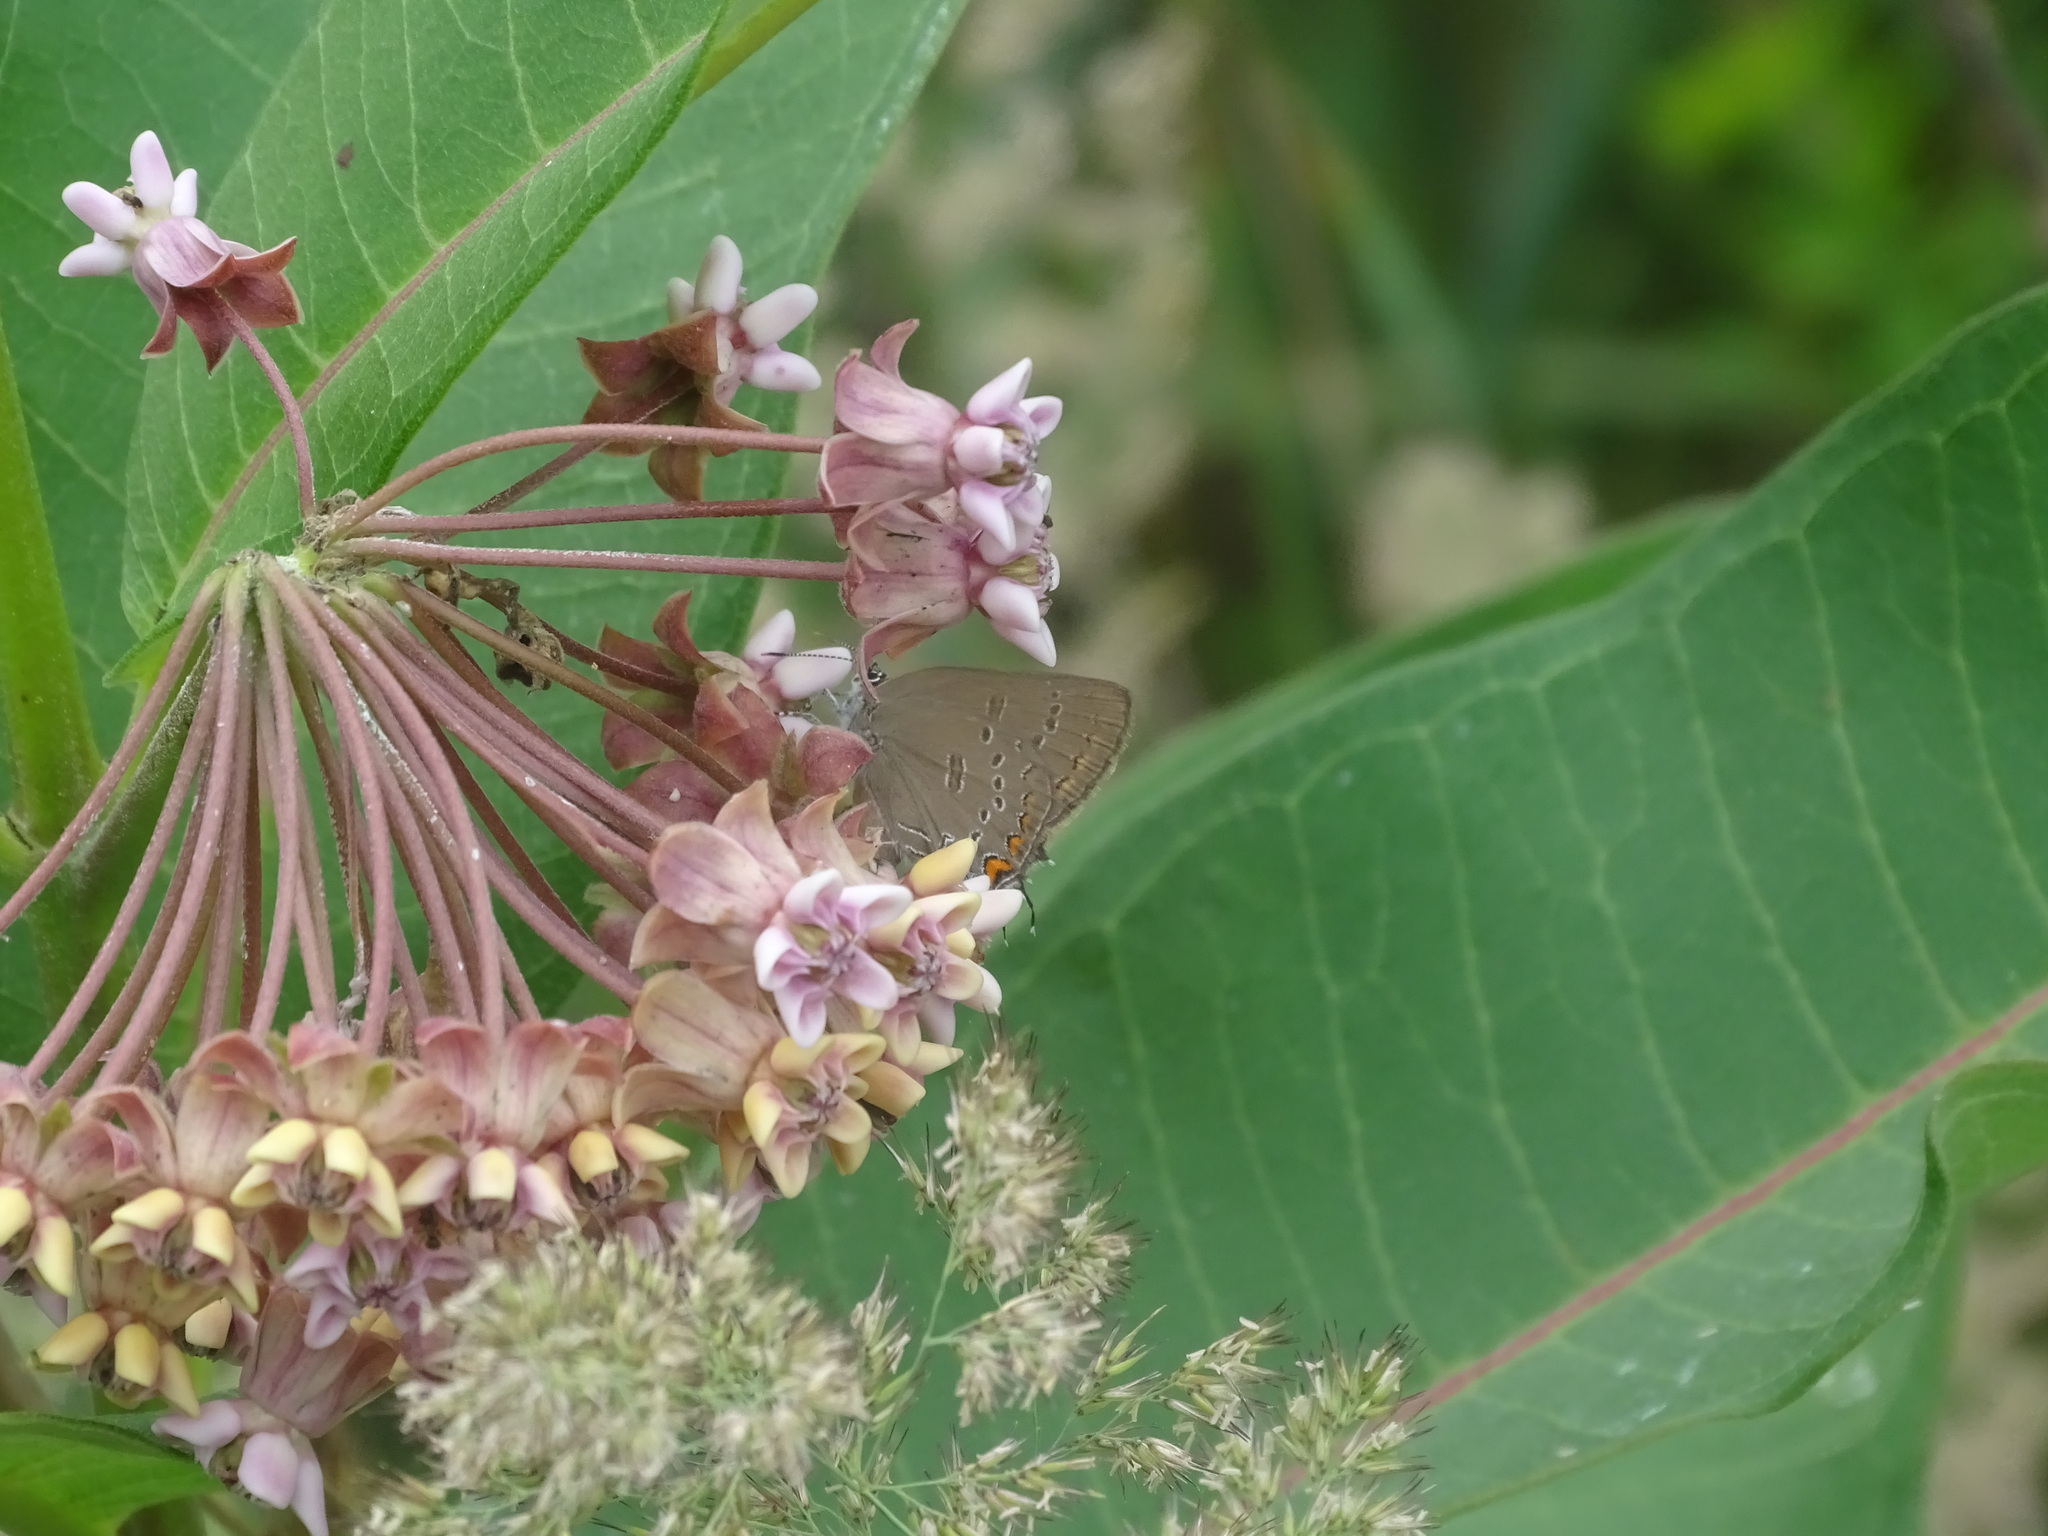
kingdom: Animalia
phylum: Arthropoda
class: Insecta
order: Lepidoptera
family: Lycaenidae
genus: Satyrium
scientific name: Satyrium edwardsii
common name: Edwards' hairstreak
